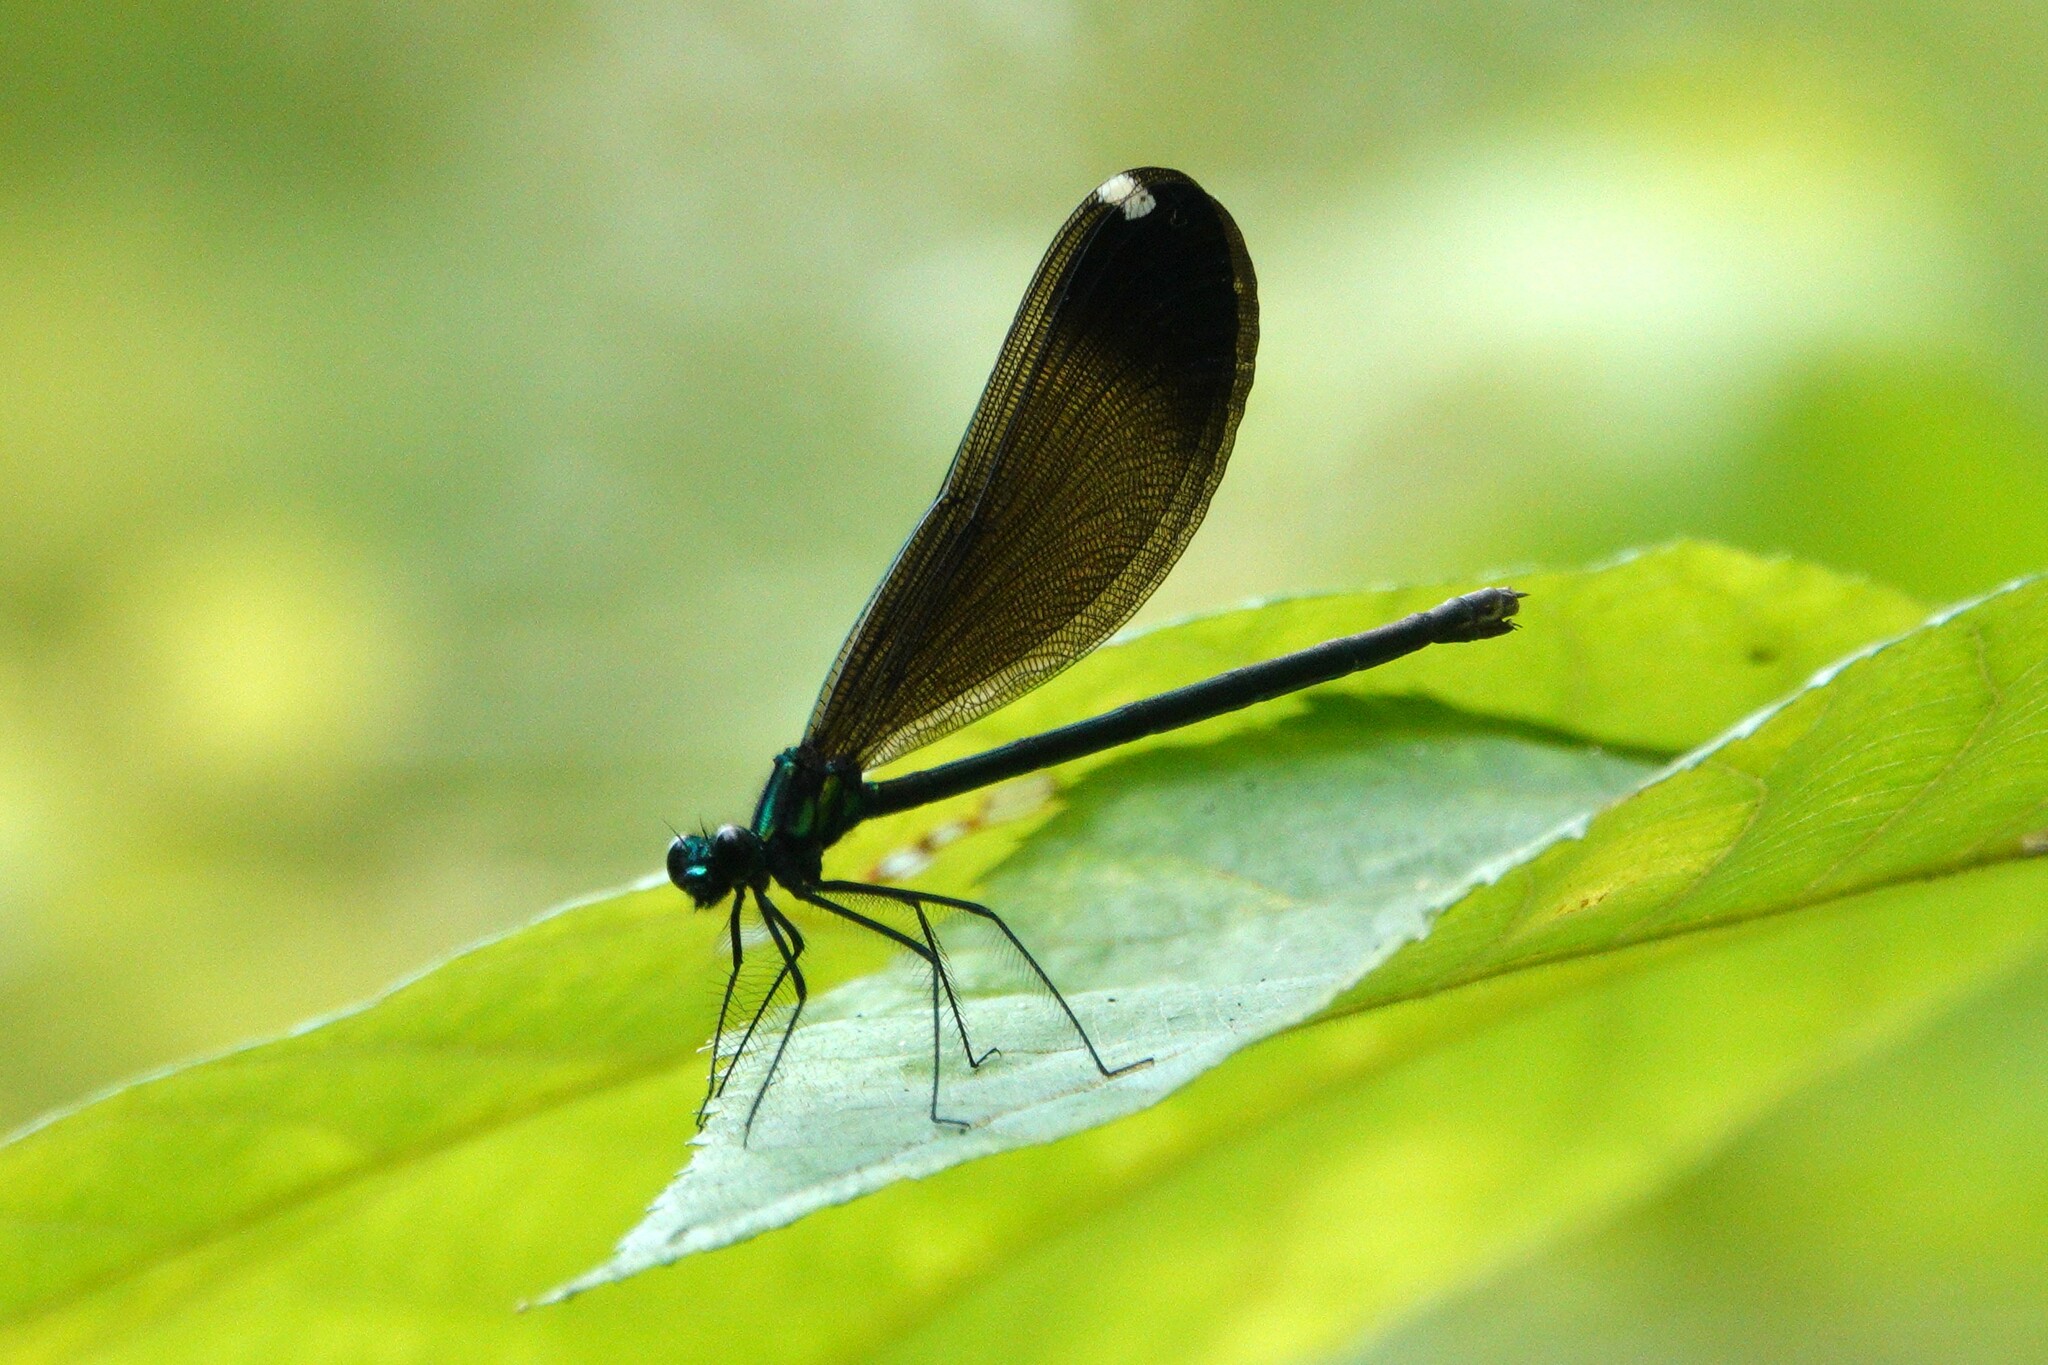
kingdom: Animalia
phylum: Arthropoda
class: Insecta
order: Odonata
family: Calopterygidae
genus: Calopteryx
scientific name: Calopteryx maculata
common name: Ebony jewelwing
